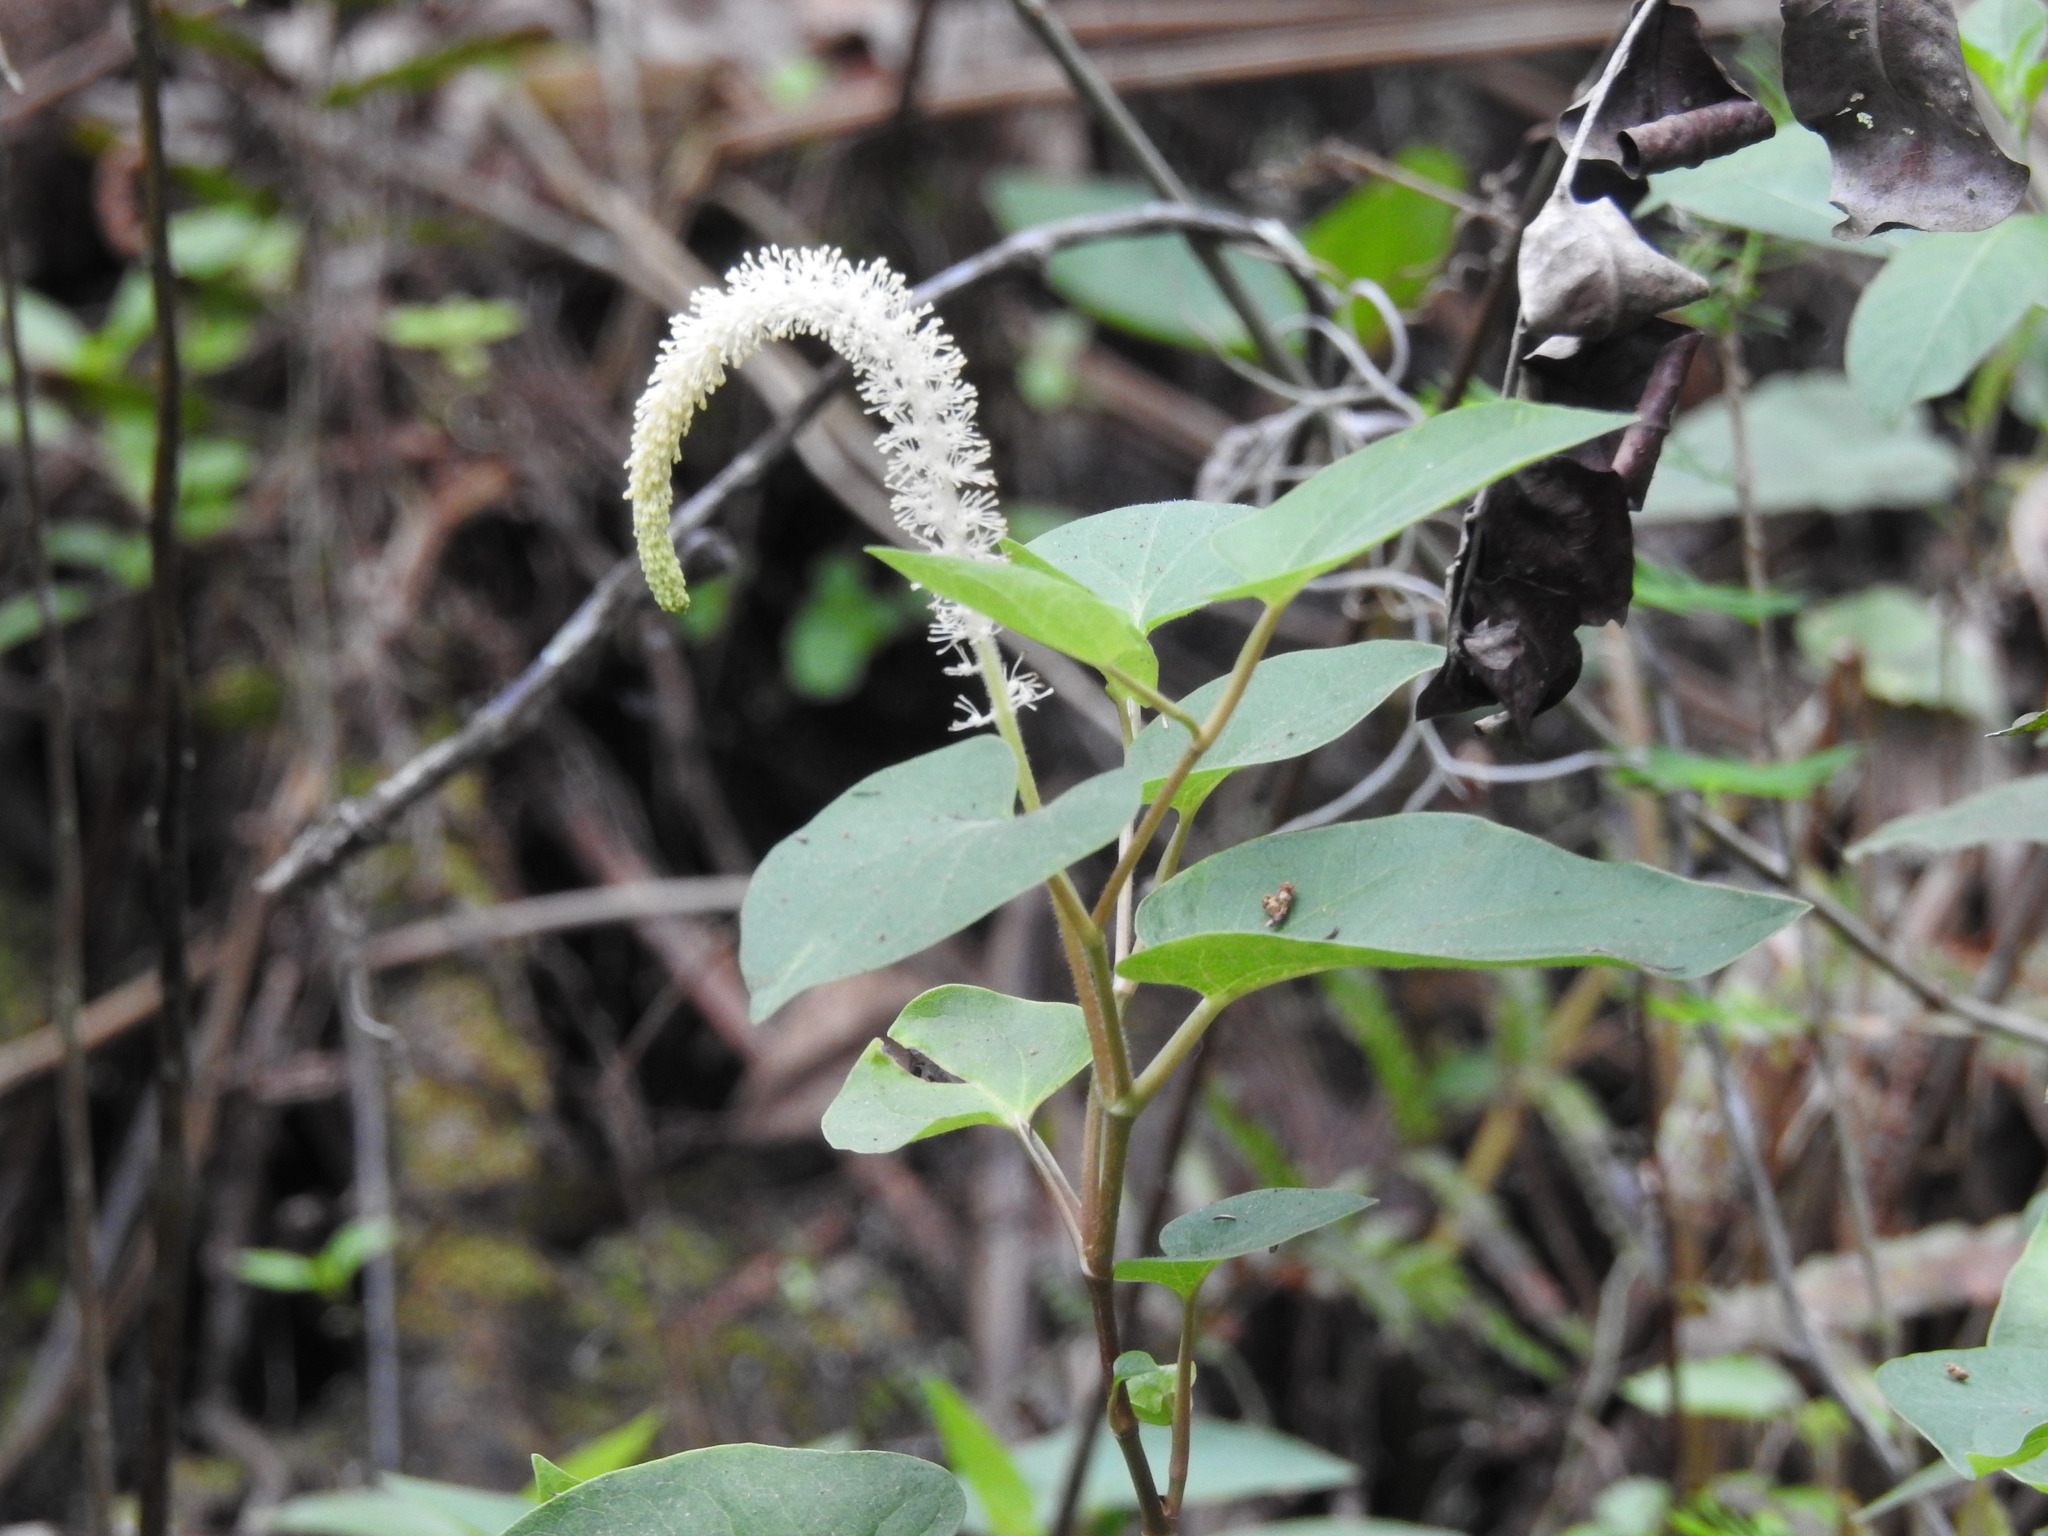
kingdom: Plantae
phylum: Tracheophyta
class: Magnoliopsida
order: Piperales
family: Saururaceae
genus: Saururus
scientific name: Saururus cernuus
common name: Lizard's-tail
